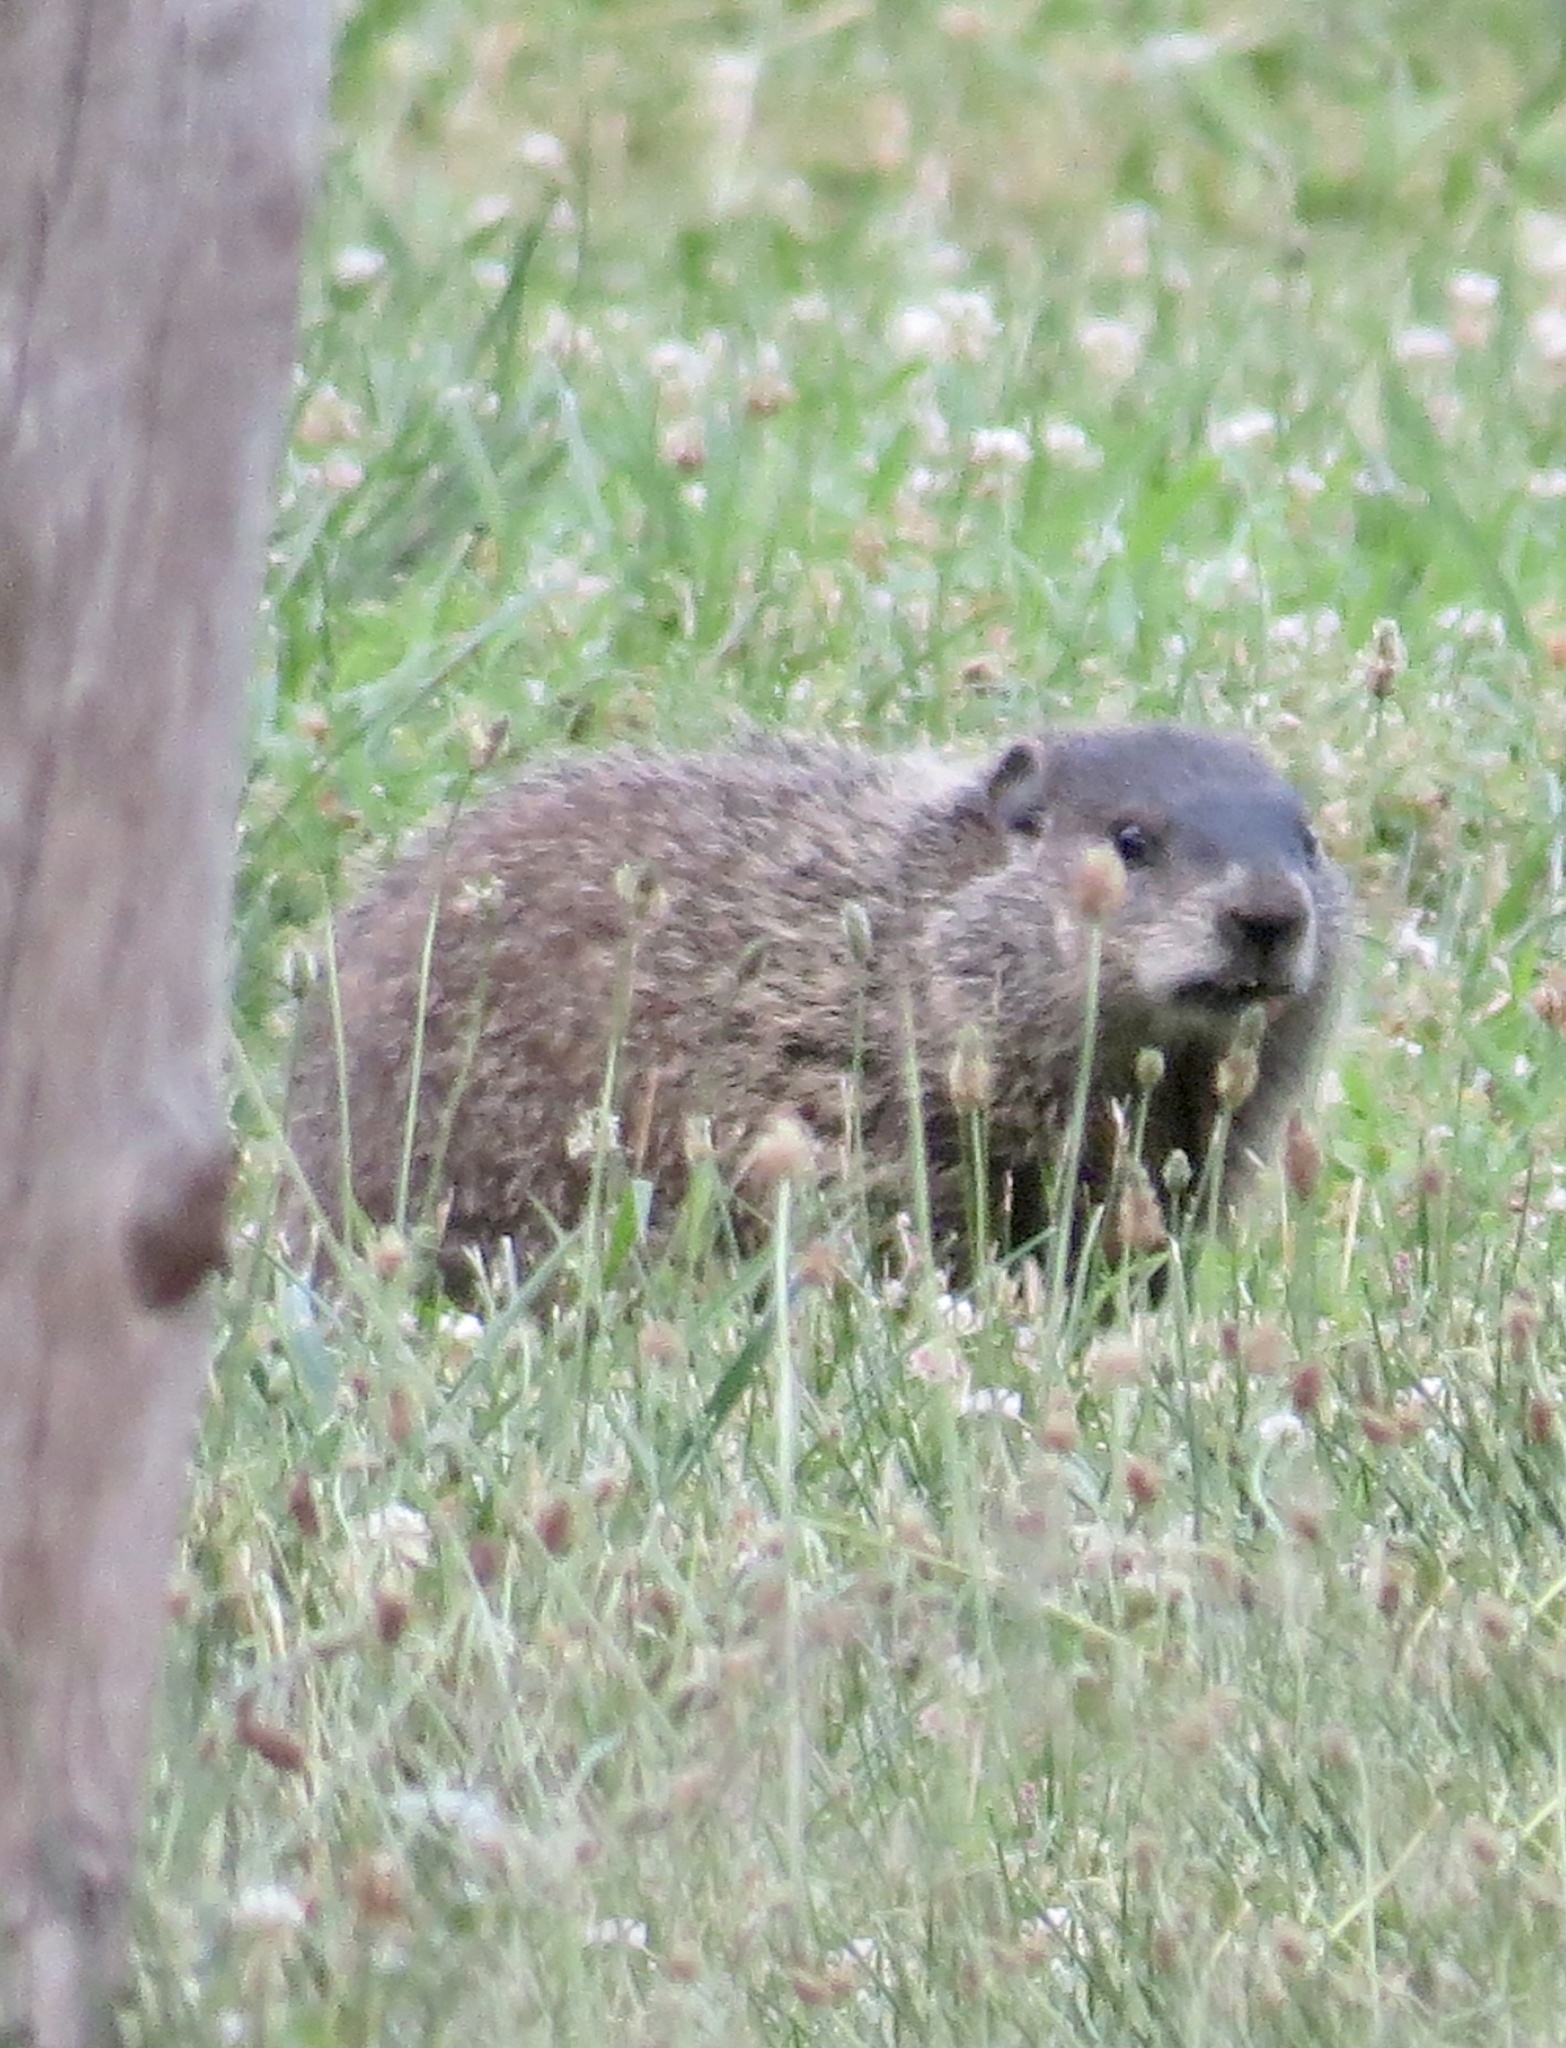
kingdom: Animalia
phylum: Chordata
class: Mammalia
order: Rodentia
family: Sciuridae
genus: Marmota
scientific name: Marmota monax
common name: Groundhog
